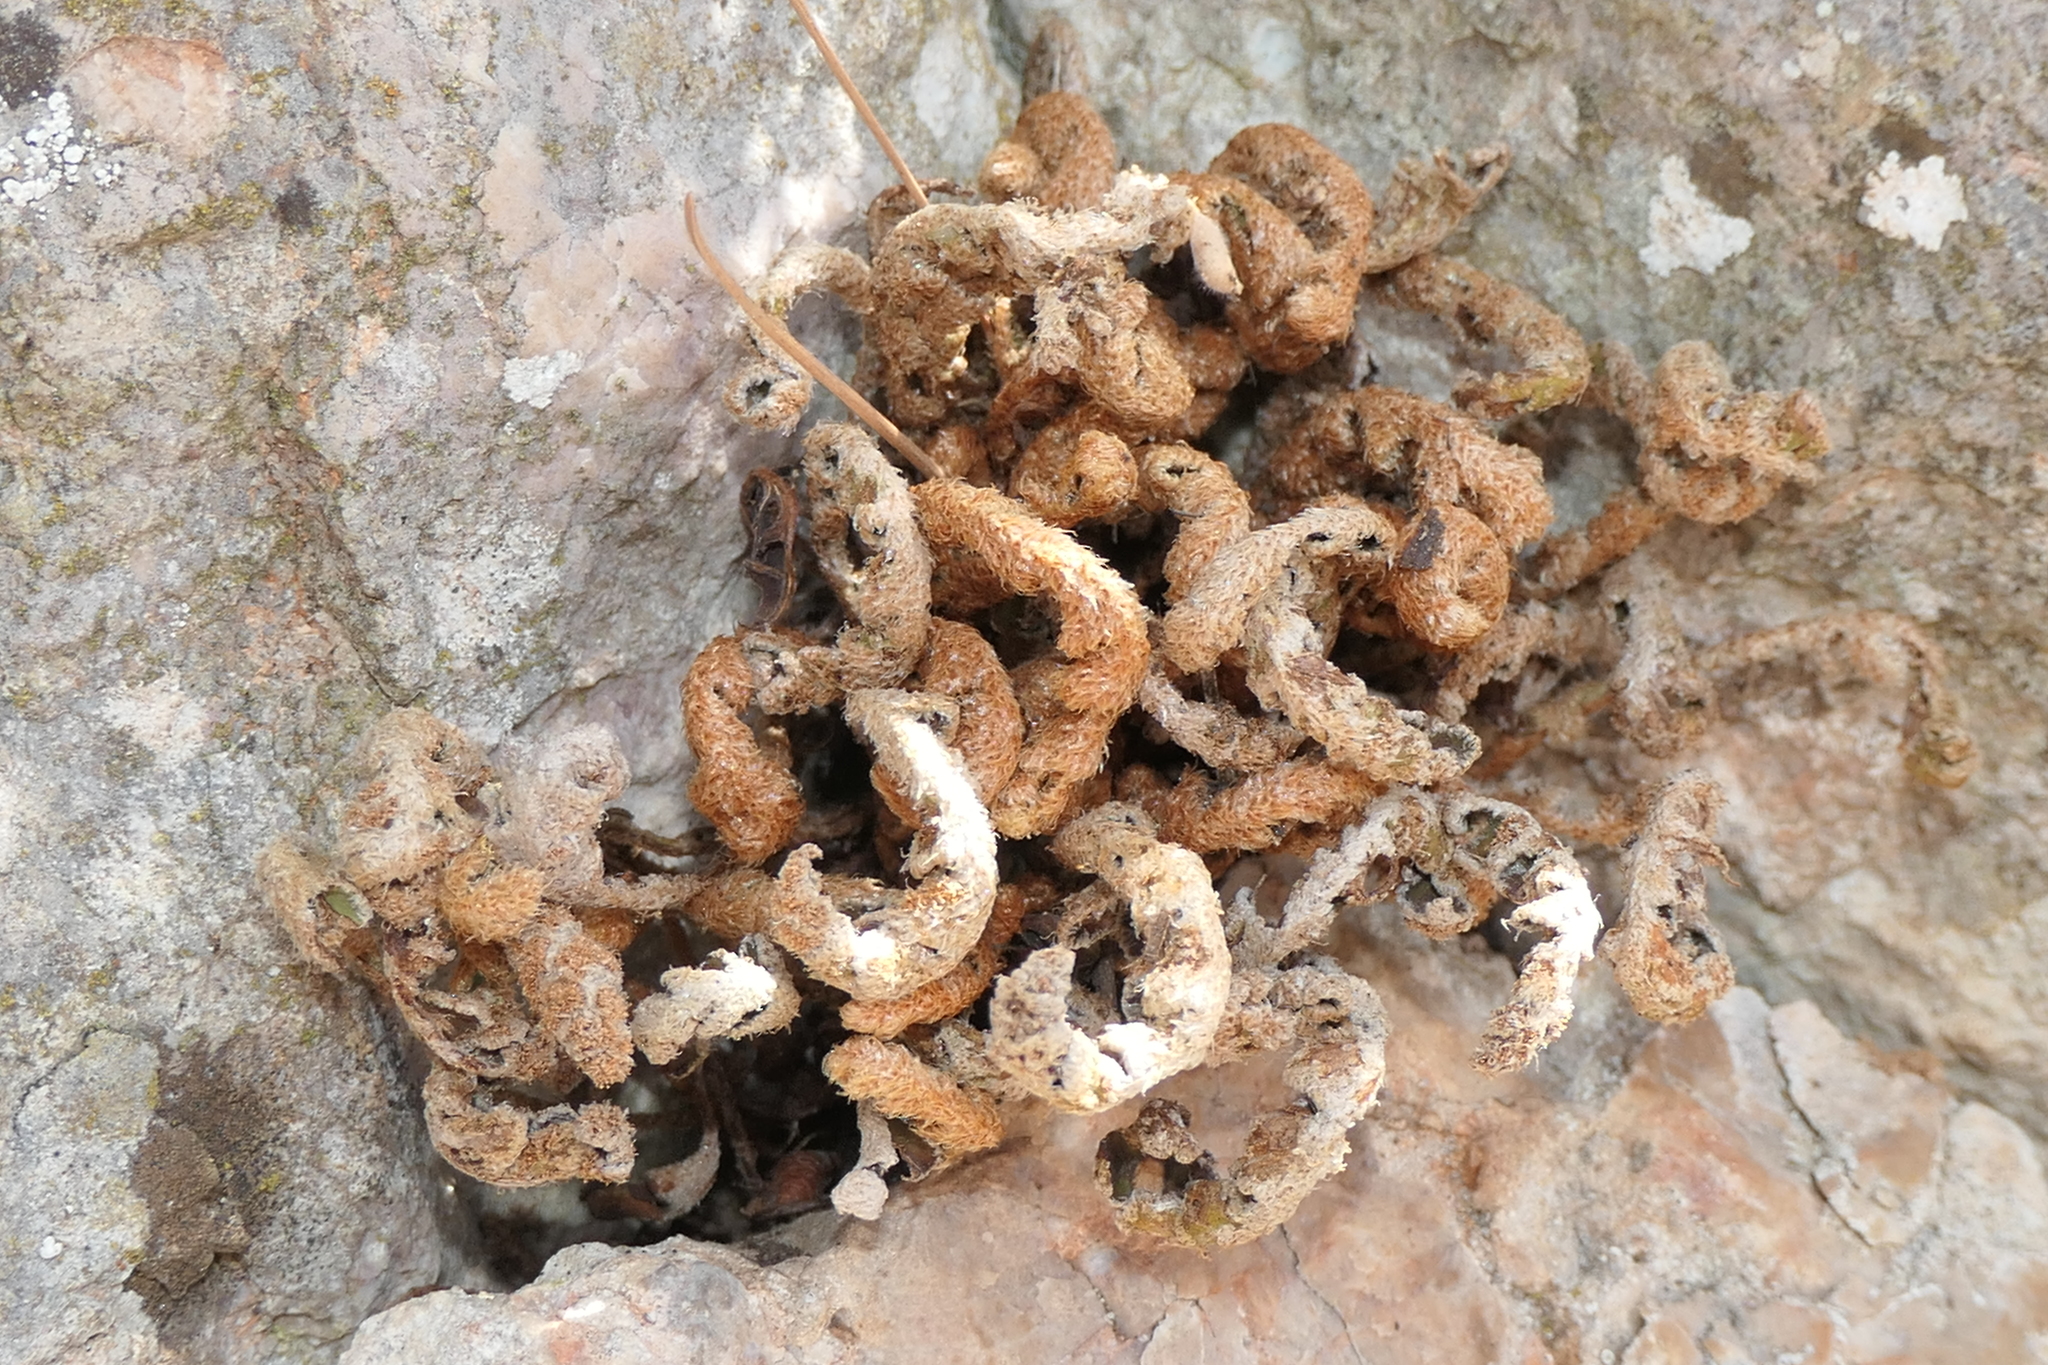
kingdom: Plantae
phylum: Tracheophyta
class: Polypodiopsida
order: Polypodiales
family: Aspleniaceae
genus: Asplenium
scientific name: Asplenium ceterach
